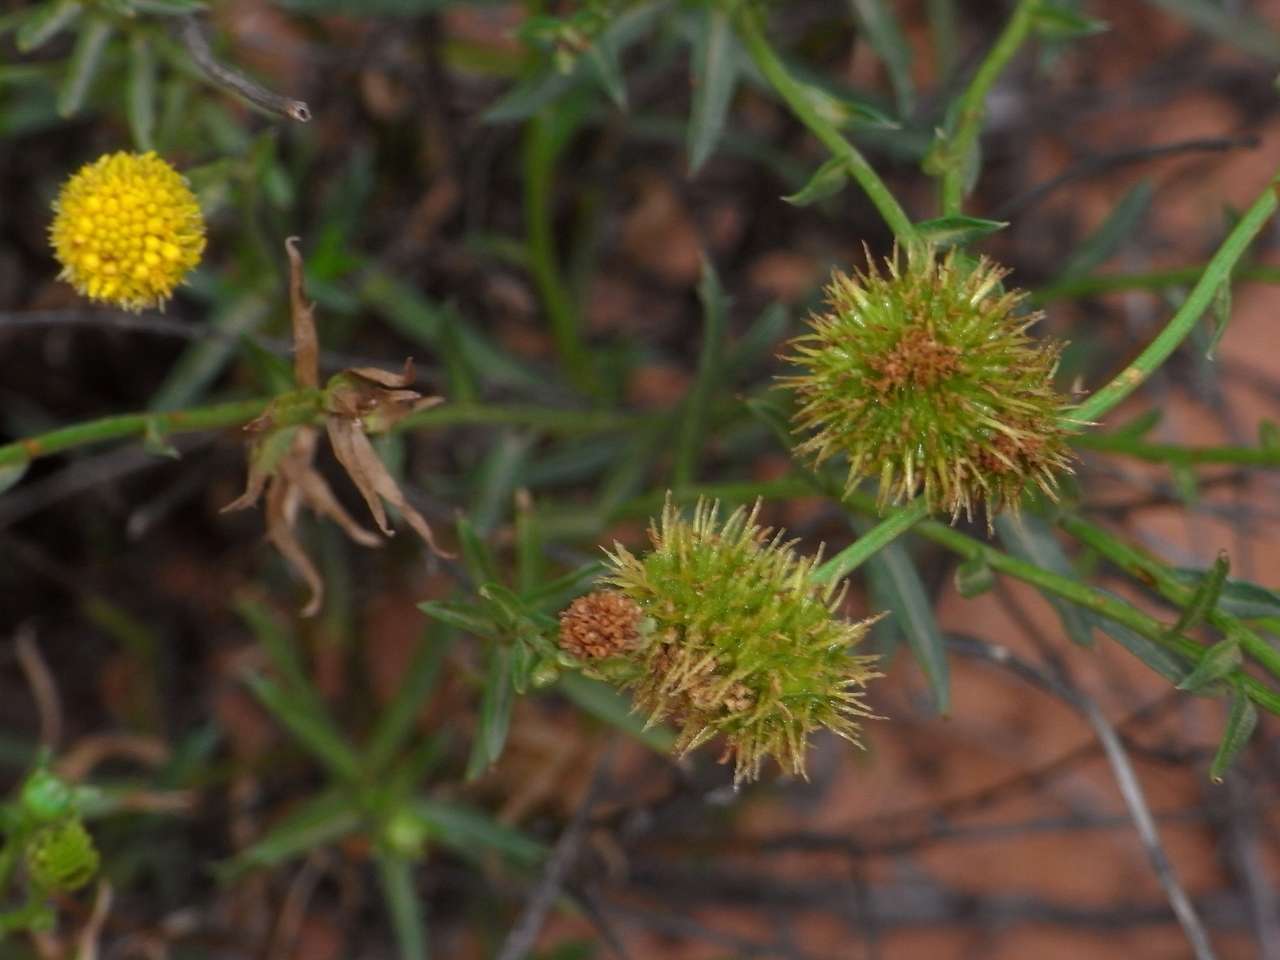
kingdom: Plantae
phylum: Tracheophyta
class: Magnoliopsida
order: Asterales
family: Asteraceae
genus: Calotis
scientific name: Calotis erinacea
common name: Tangled bur daisy
